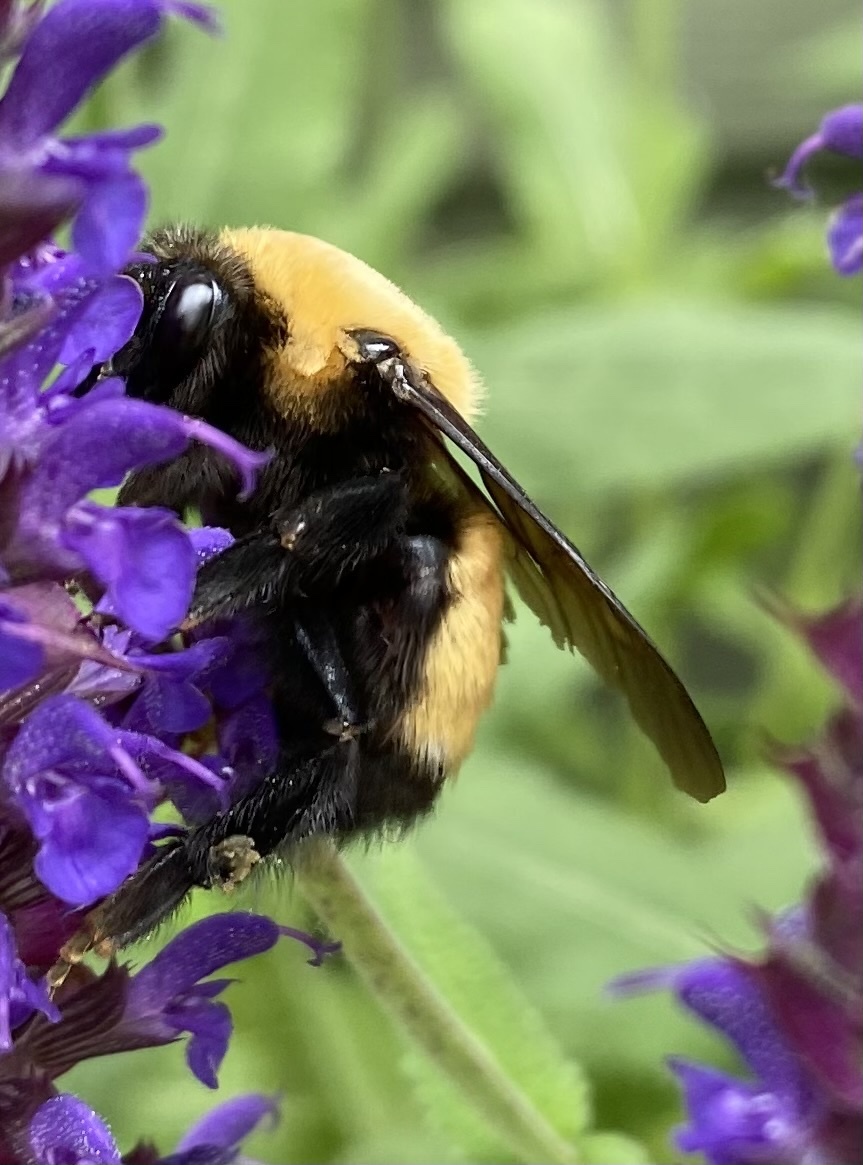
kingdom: Animalia
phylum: Arthropoda
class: Insecta
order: Hymenoptera
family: Apidae
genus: Bombus
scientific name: Bombus nevadensis
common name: Nevada bumble bee
